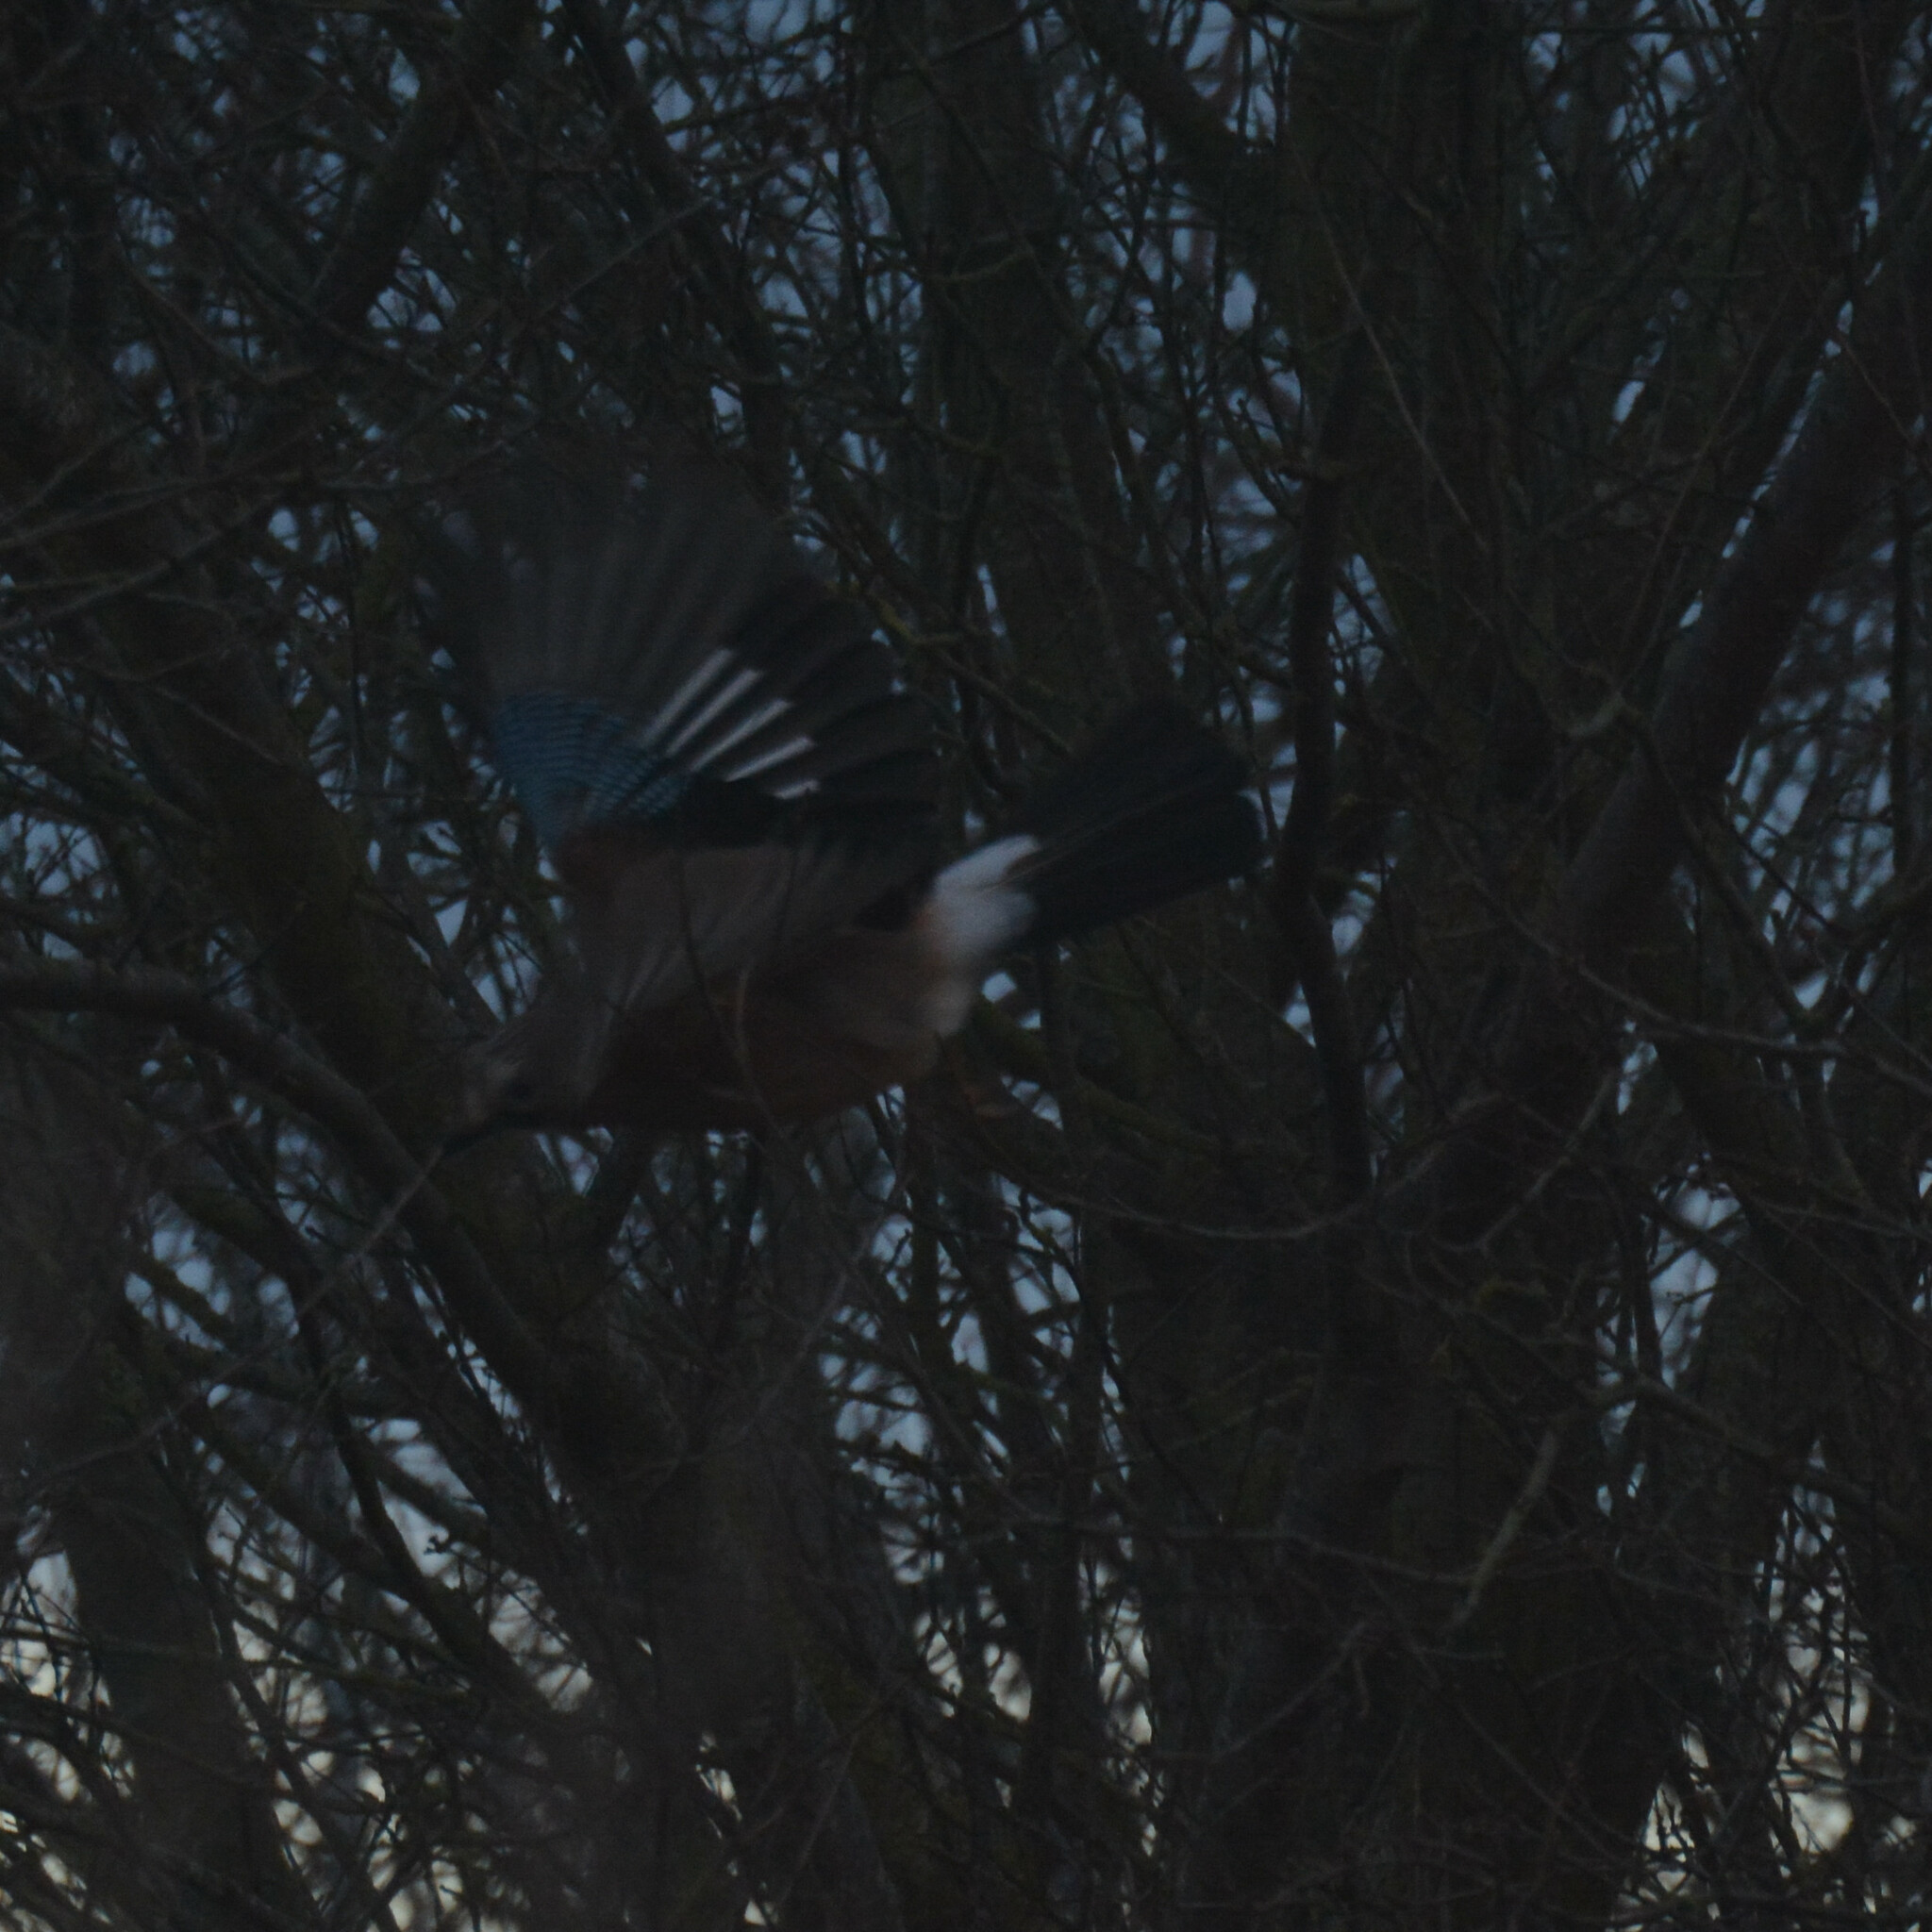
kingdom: Animalia
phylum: Chordata
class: Aves
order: Passeriformes
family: Corvidae
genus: Garrulus
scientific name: Garrulus glandarius
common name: Eurasian jay
